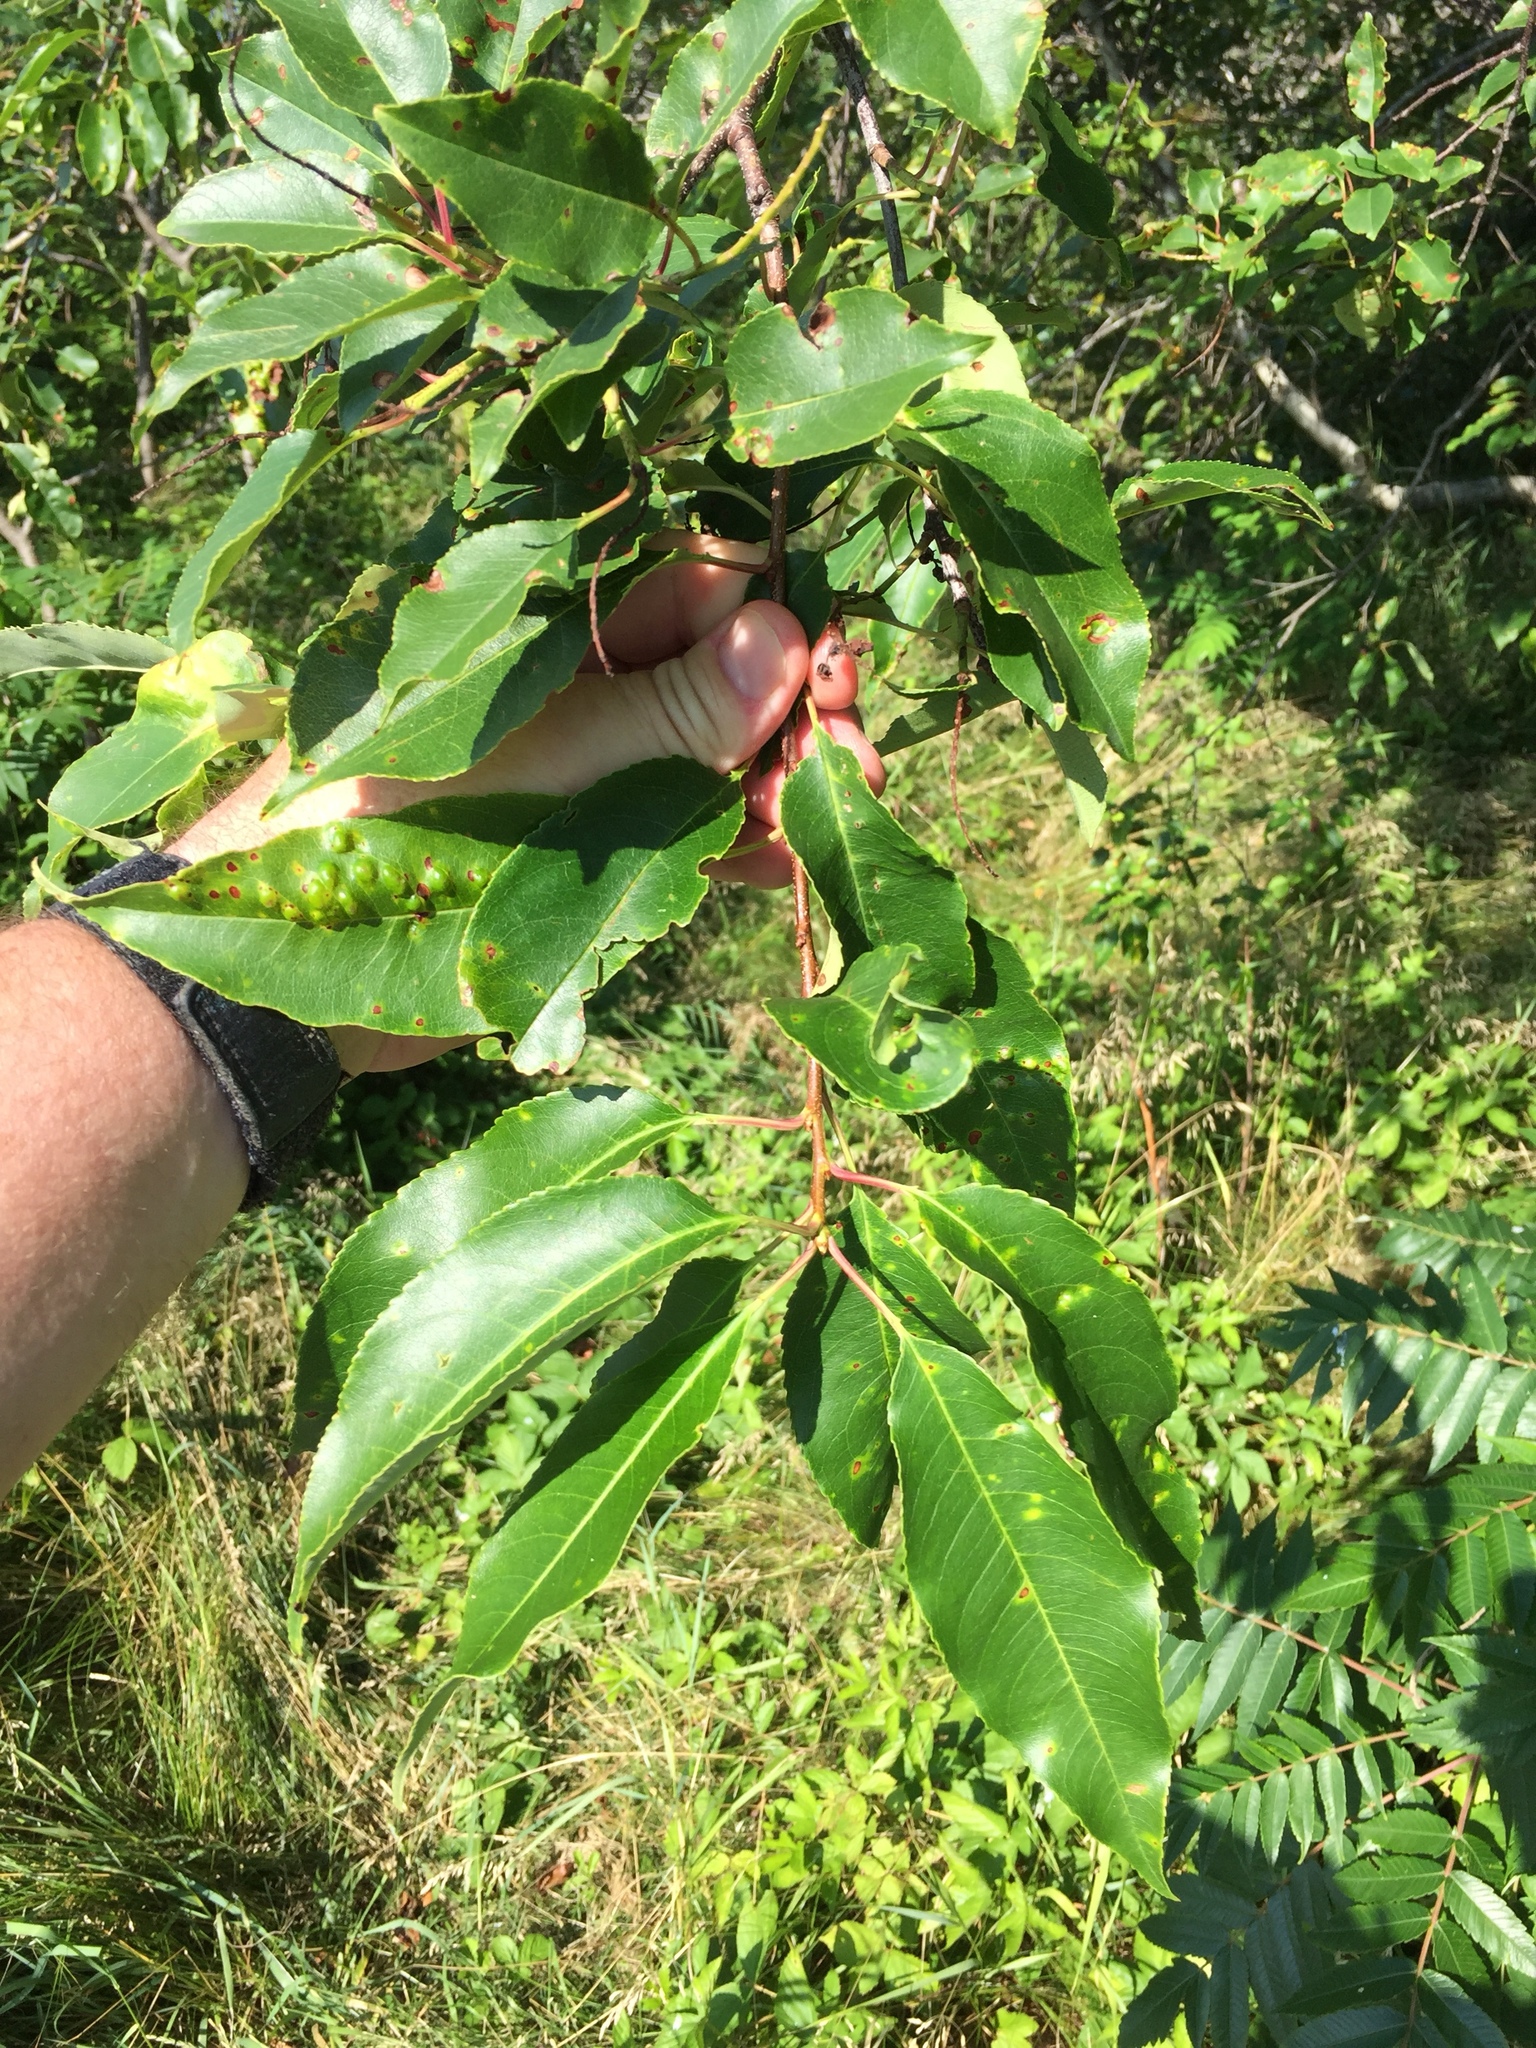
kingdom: Plantae
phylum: Tracheophyta
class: Magnoliopsida
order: Rosales
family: Rosaceae
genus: Prunus
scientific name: Prunus serotina
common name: Black cherry
